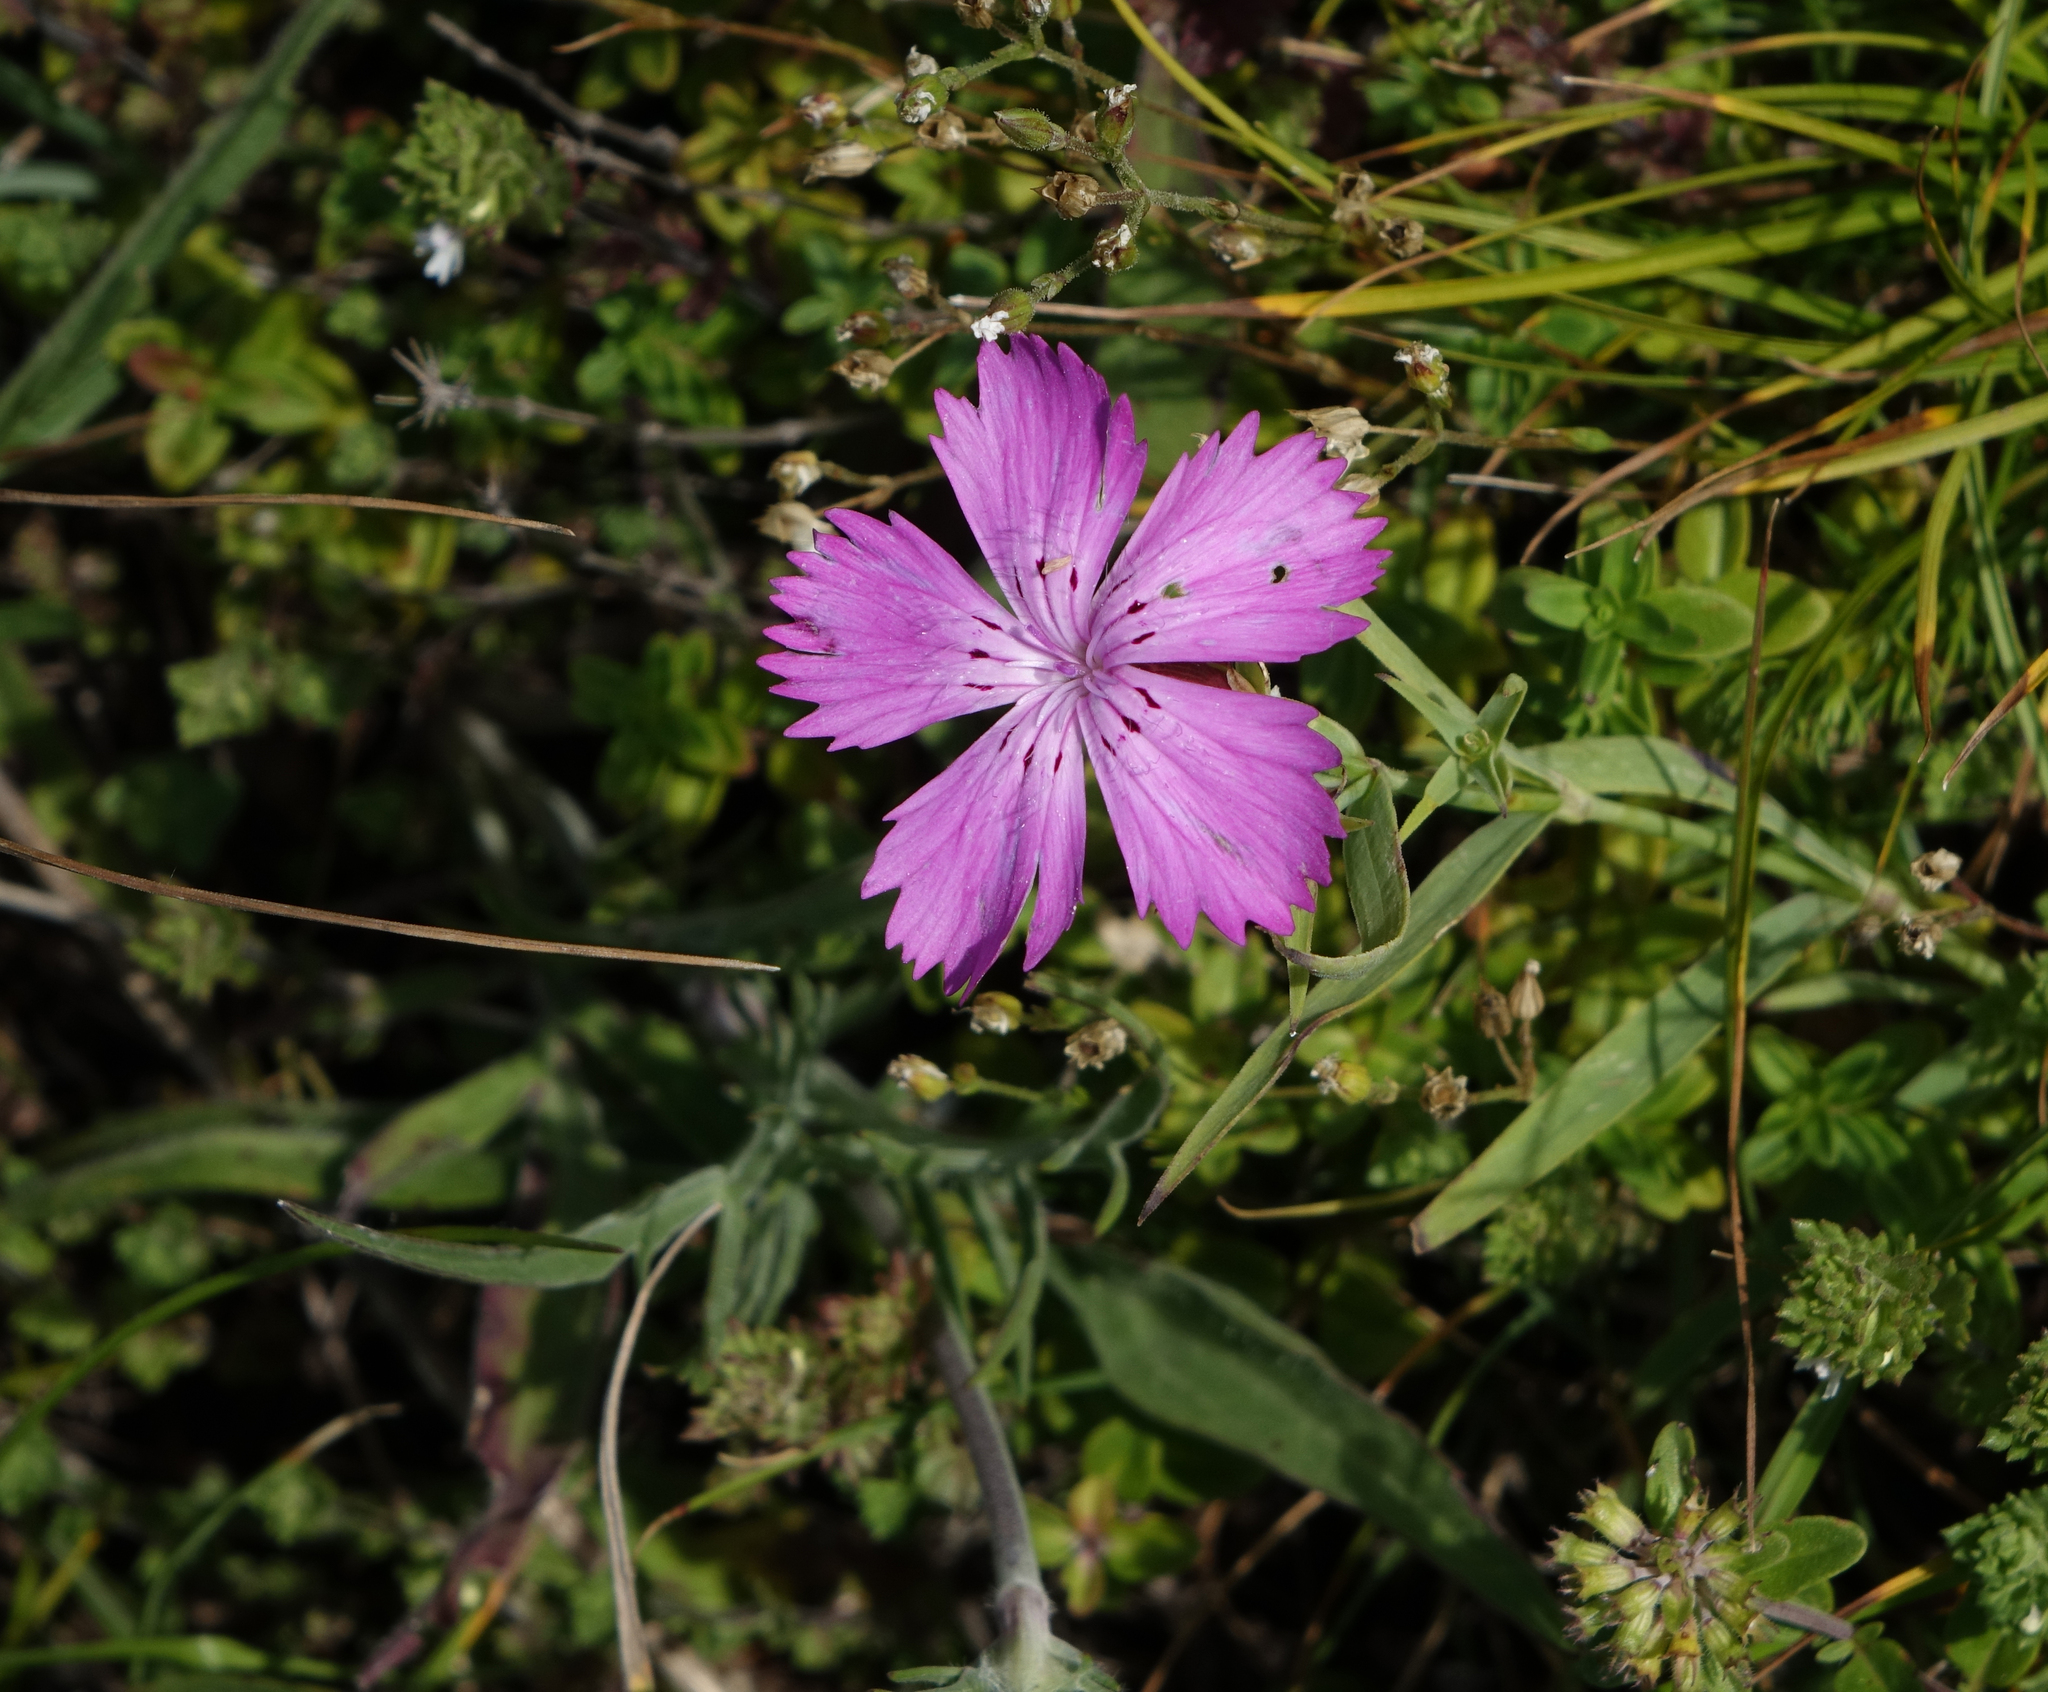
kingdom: Plantae
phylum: Tracheophyta
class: Magnoliopsida
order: Caryophyllales
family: Caryophyllaceae
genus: Dianthus
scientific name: Dianthus caucaseus
